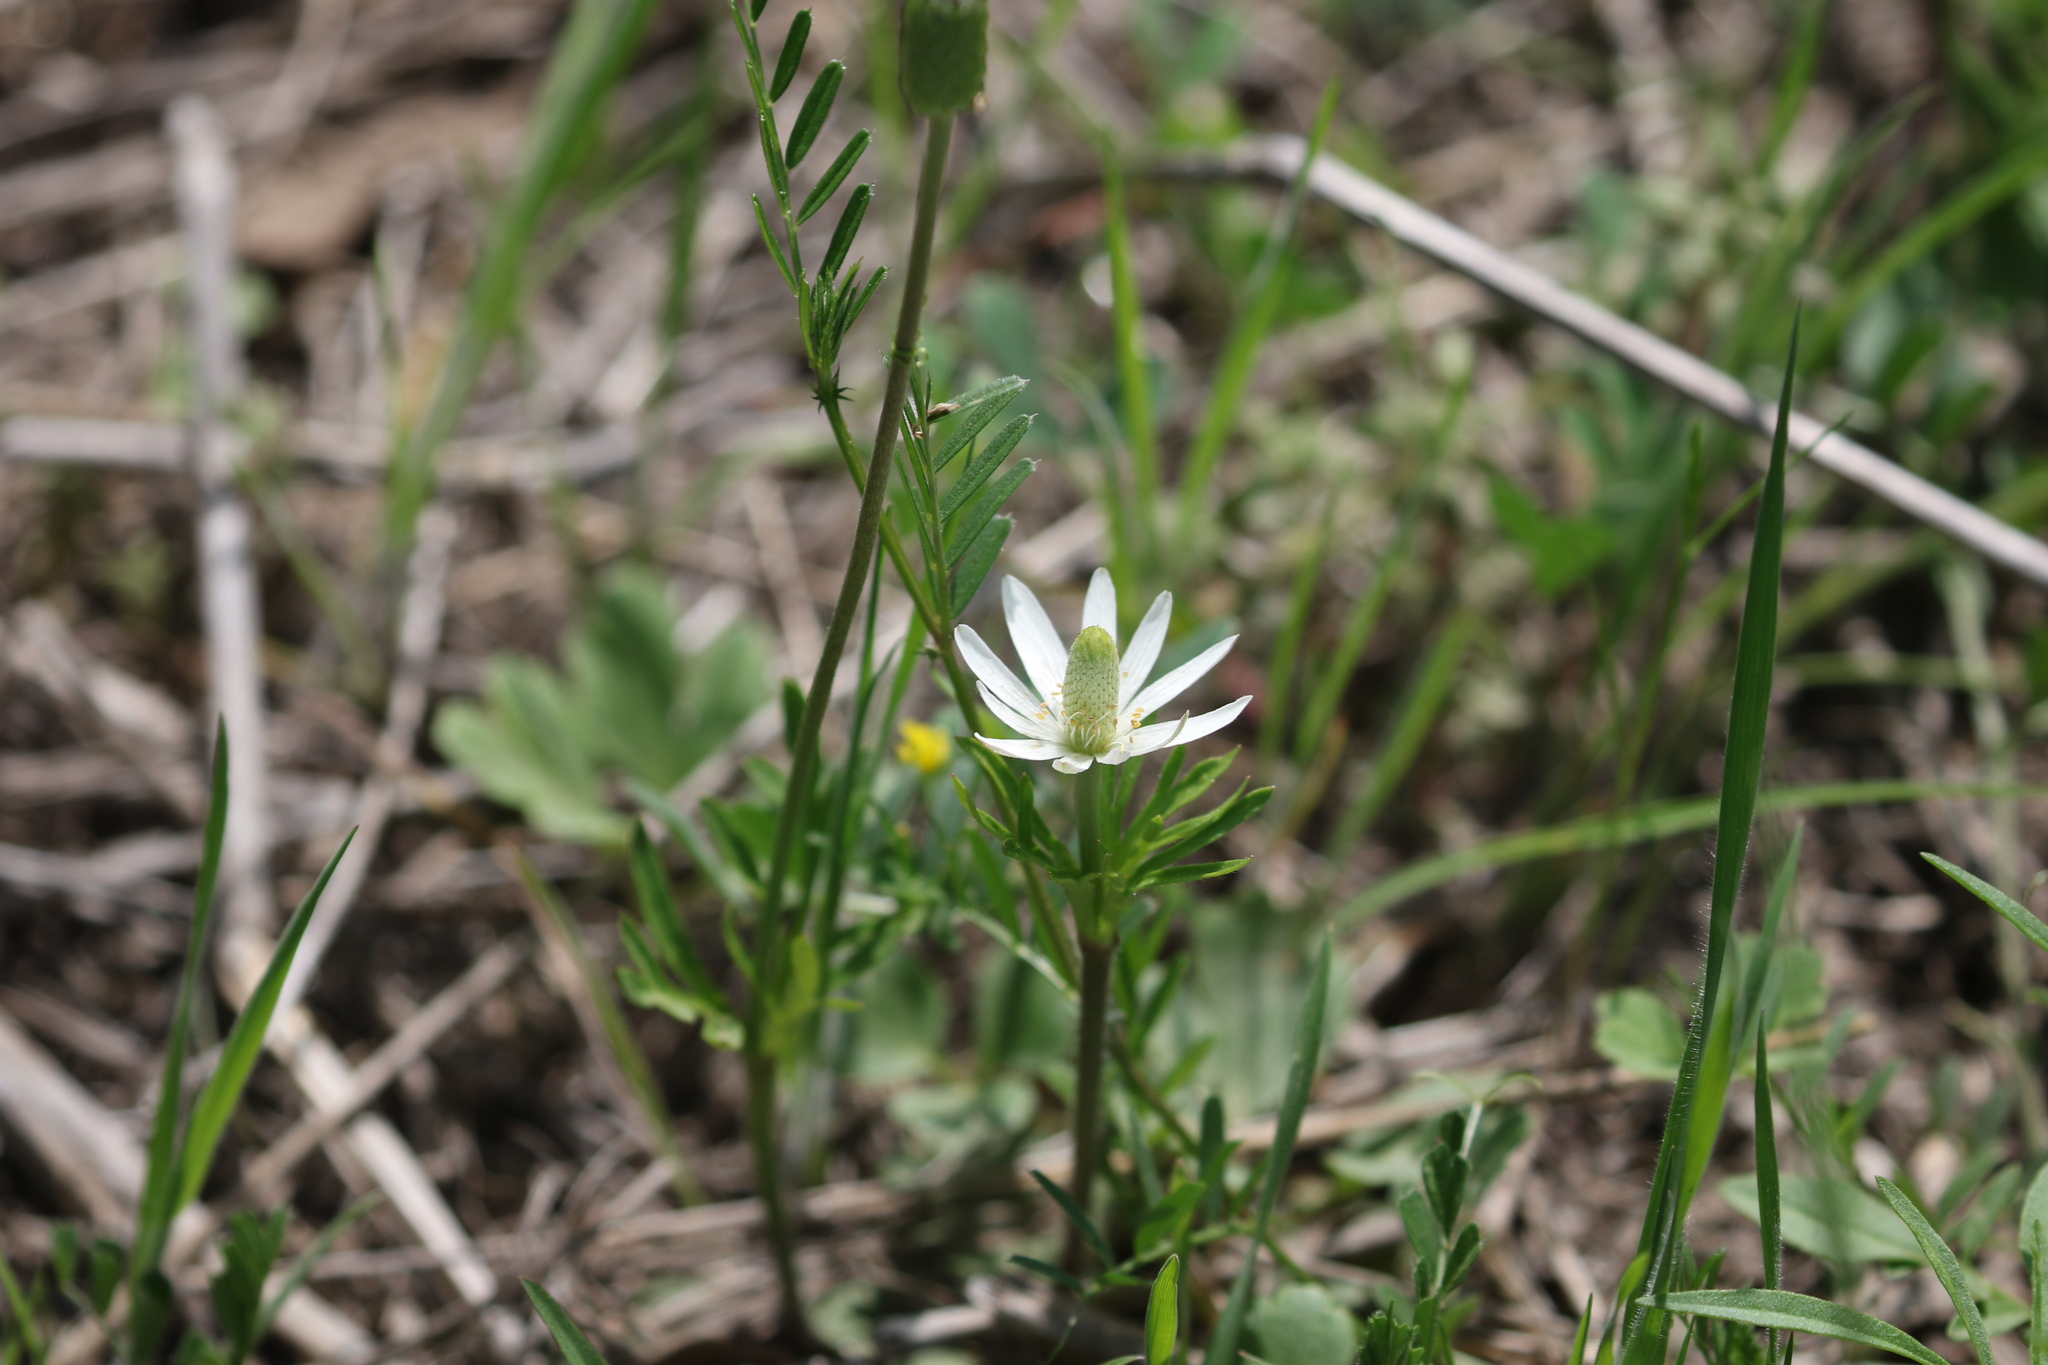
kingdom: Plantae
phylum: Tracheophyta
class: Magnoliopsida
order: Ranunculales
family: Ranunculaceae
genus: Anemone
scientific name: Anemone berlandieri
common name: Ten-petal anemone
